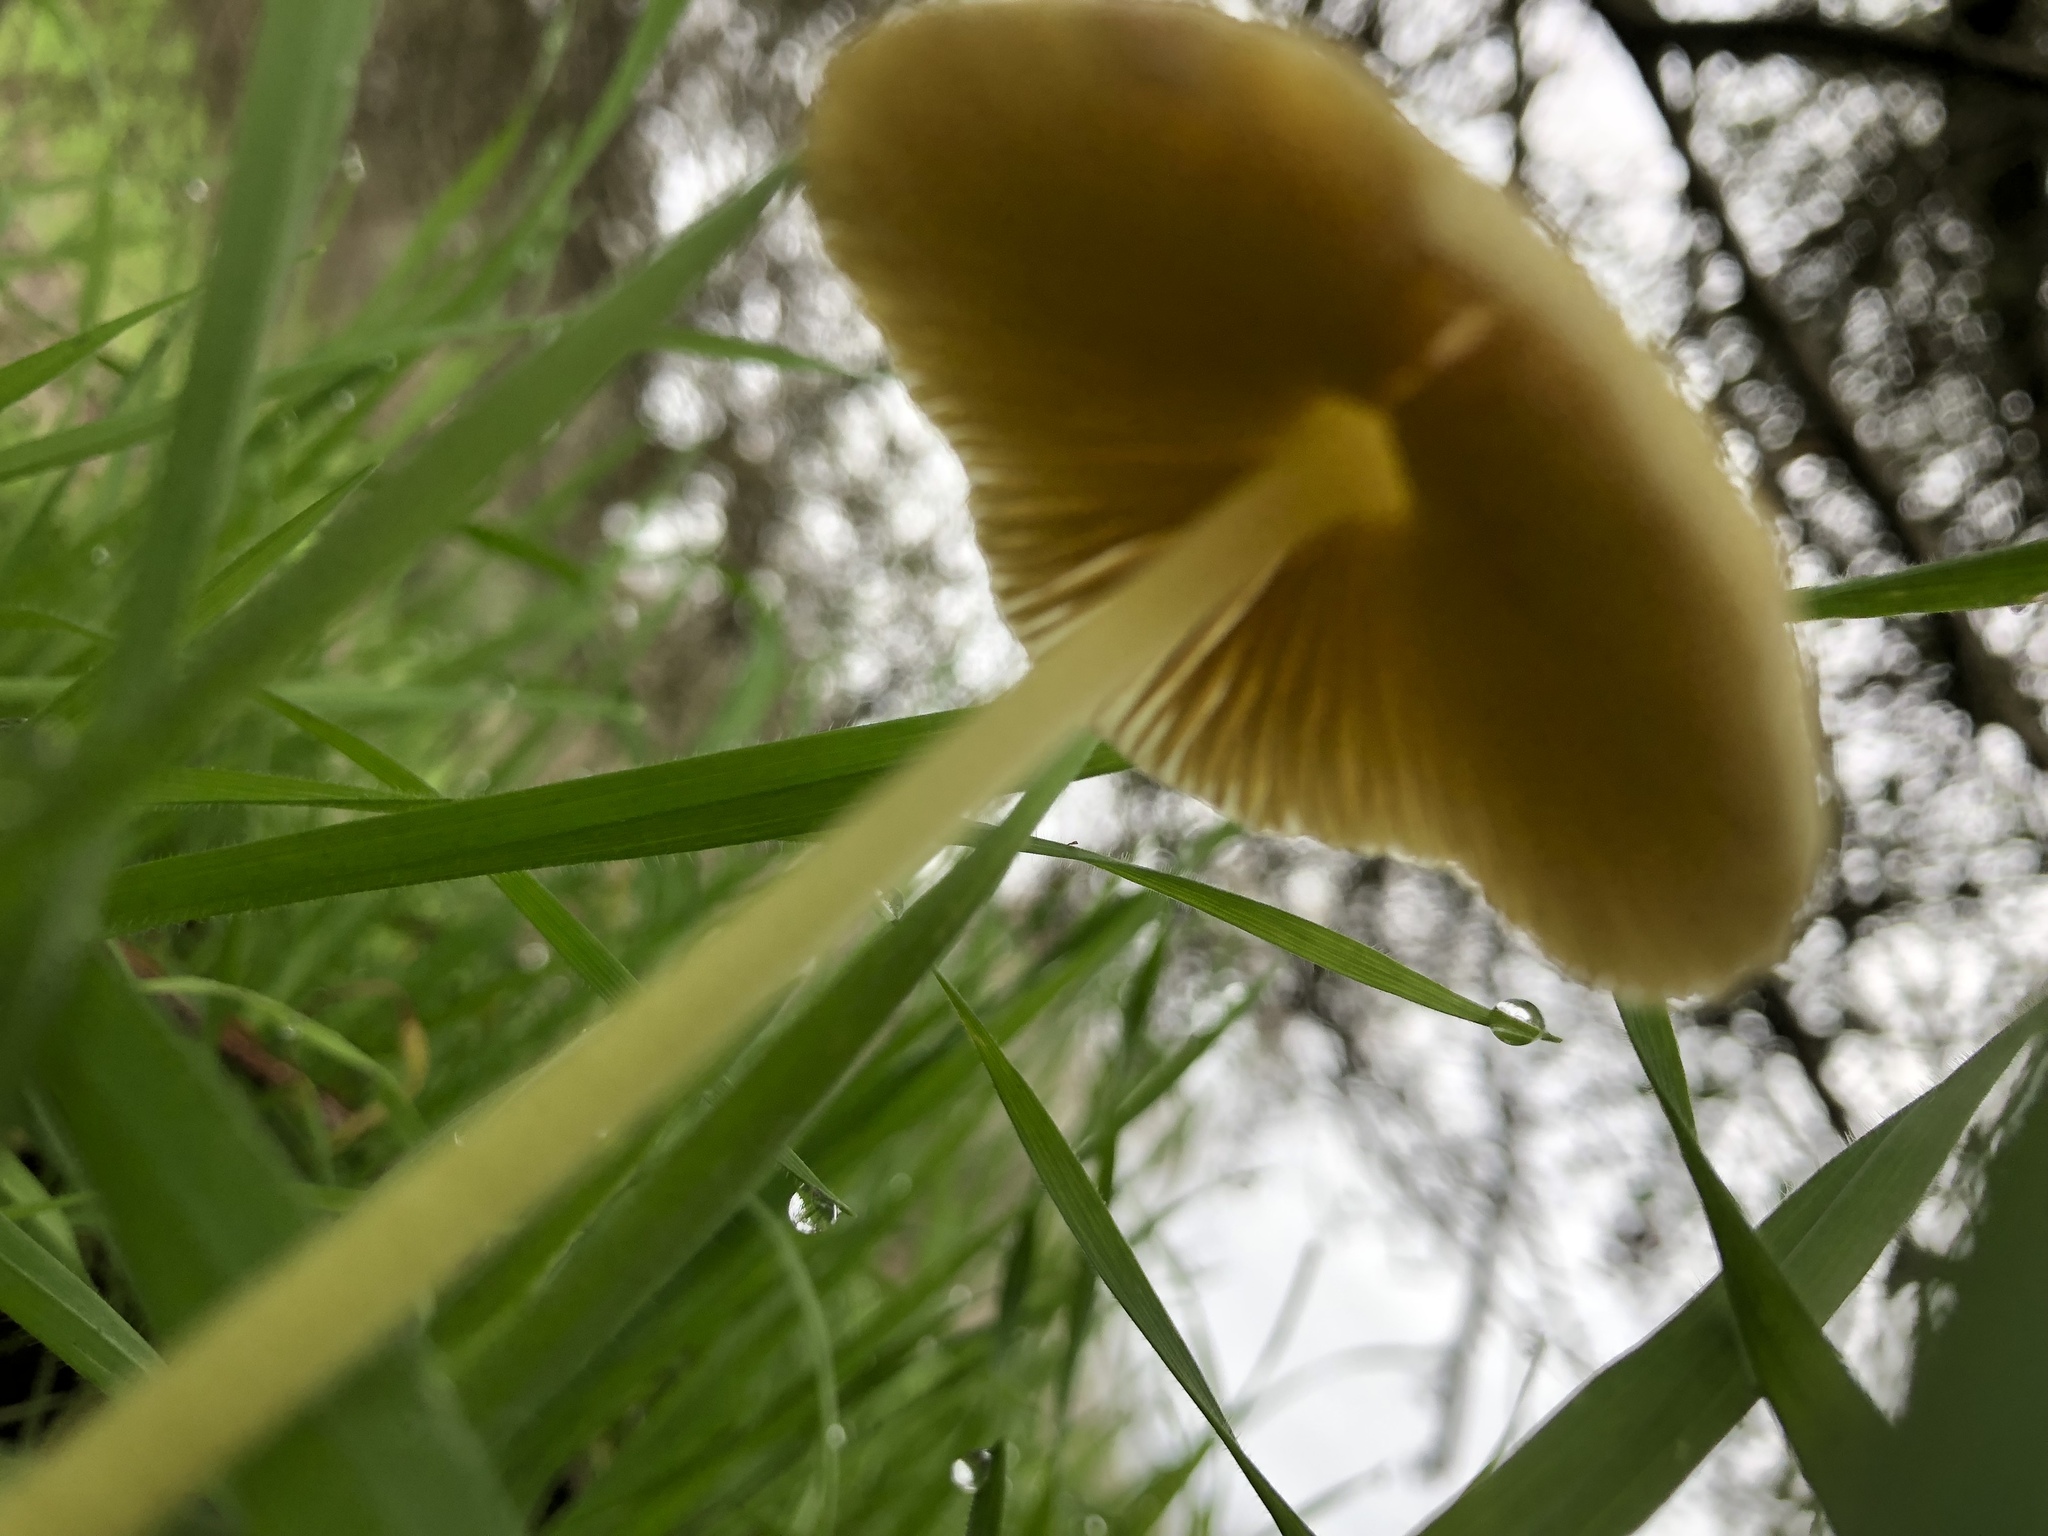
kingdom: Fungi
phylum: Basidiomycota
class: Agaricomycetes
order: Agaricales
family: Bolbitiaceae
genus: Bolbitius
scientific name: Bolbitius titubans
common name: Yellow fieldcap
